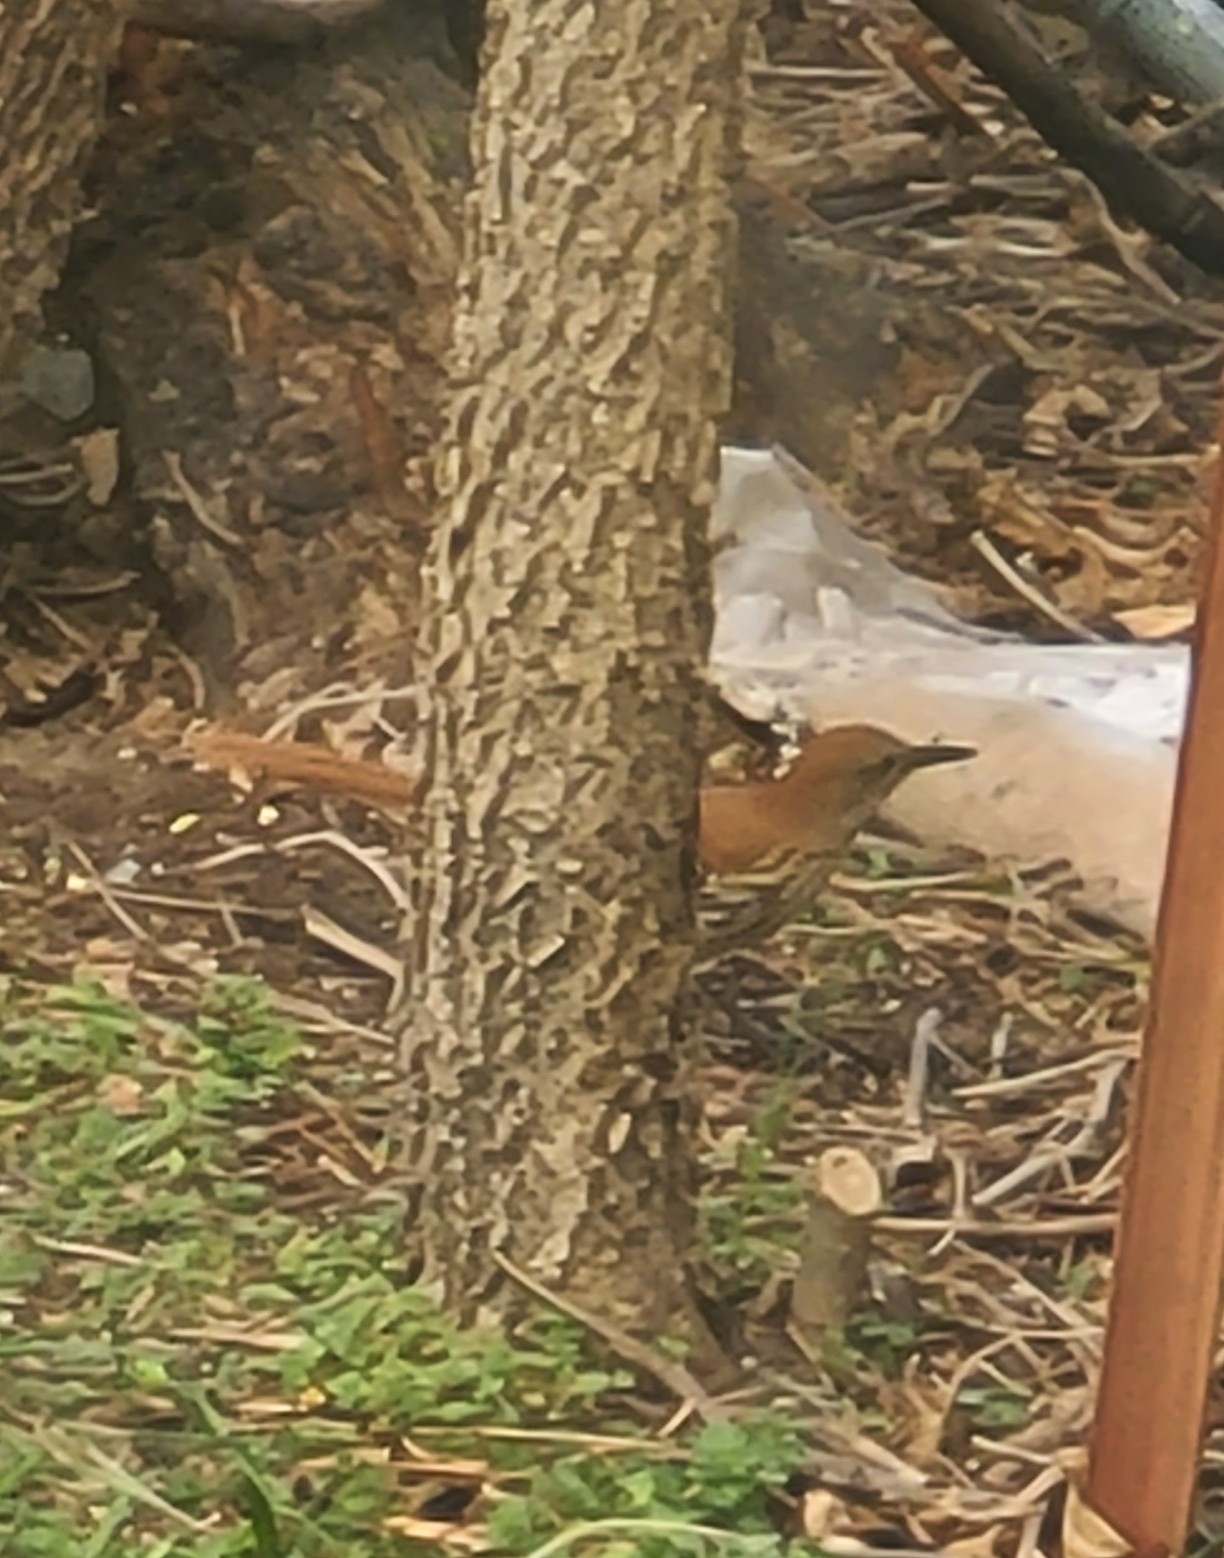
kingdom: Animalia
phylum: Chordata
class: Aves
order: Passeriformes
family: Mimidae
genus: Toxostoma
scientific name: Toxostoma rufum
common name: Brown thrasher
